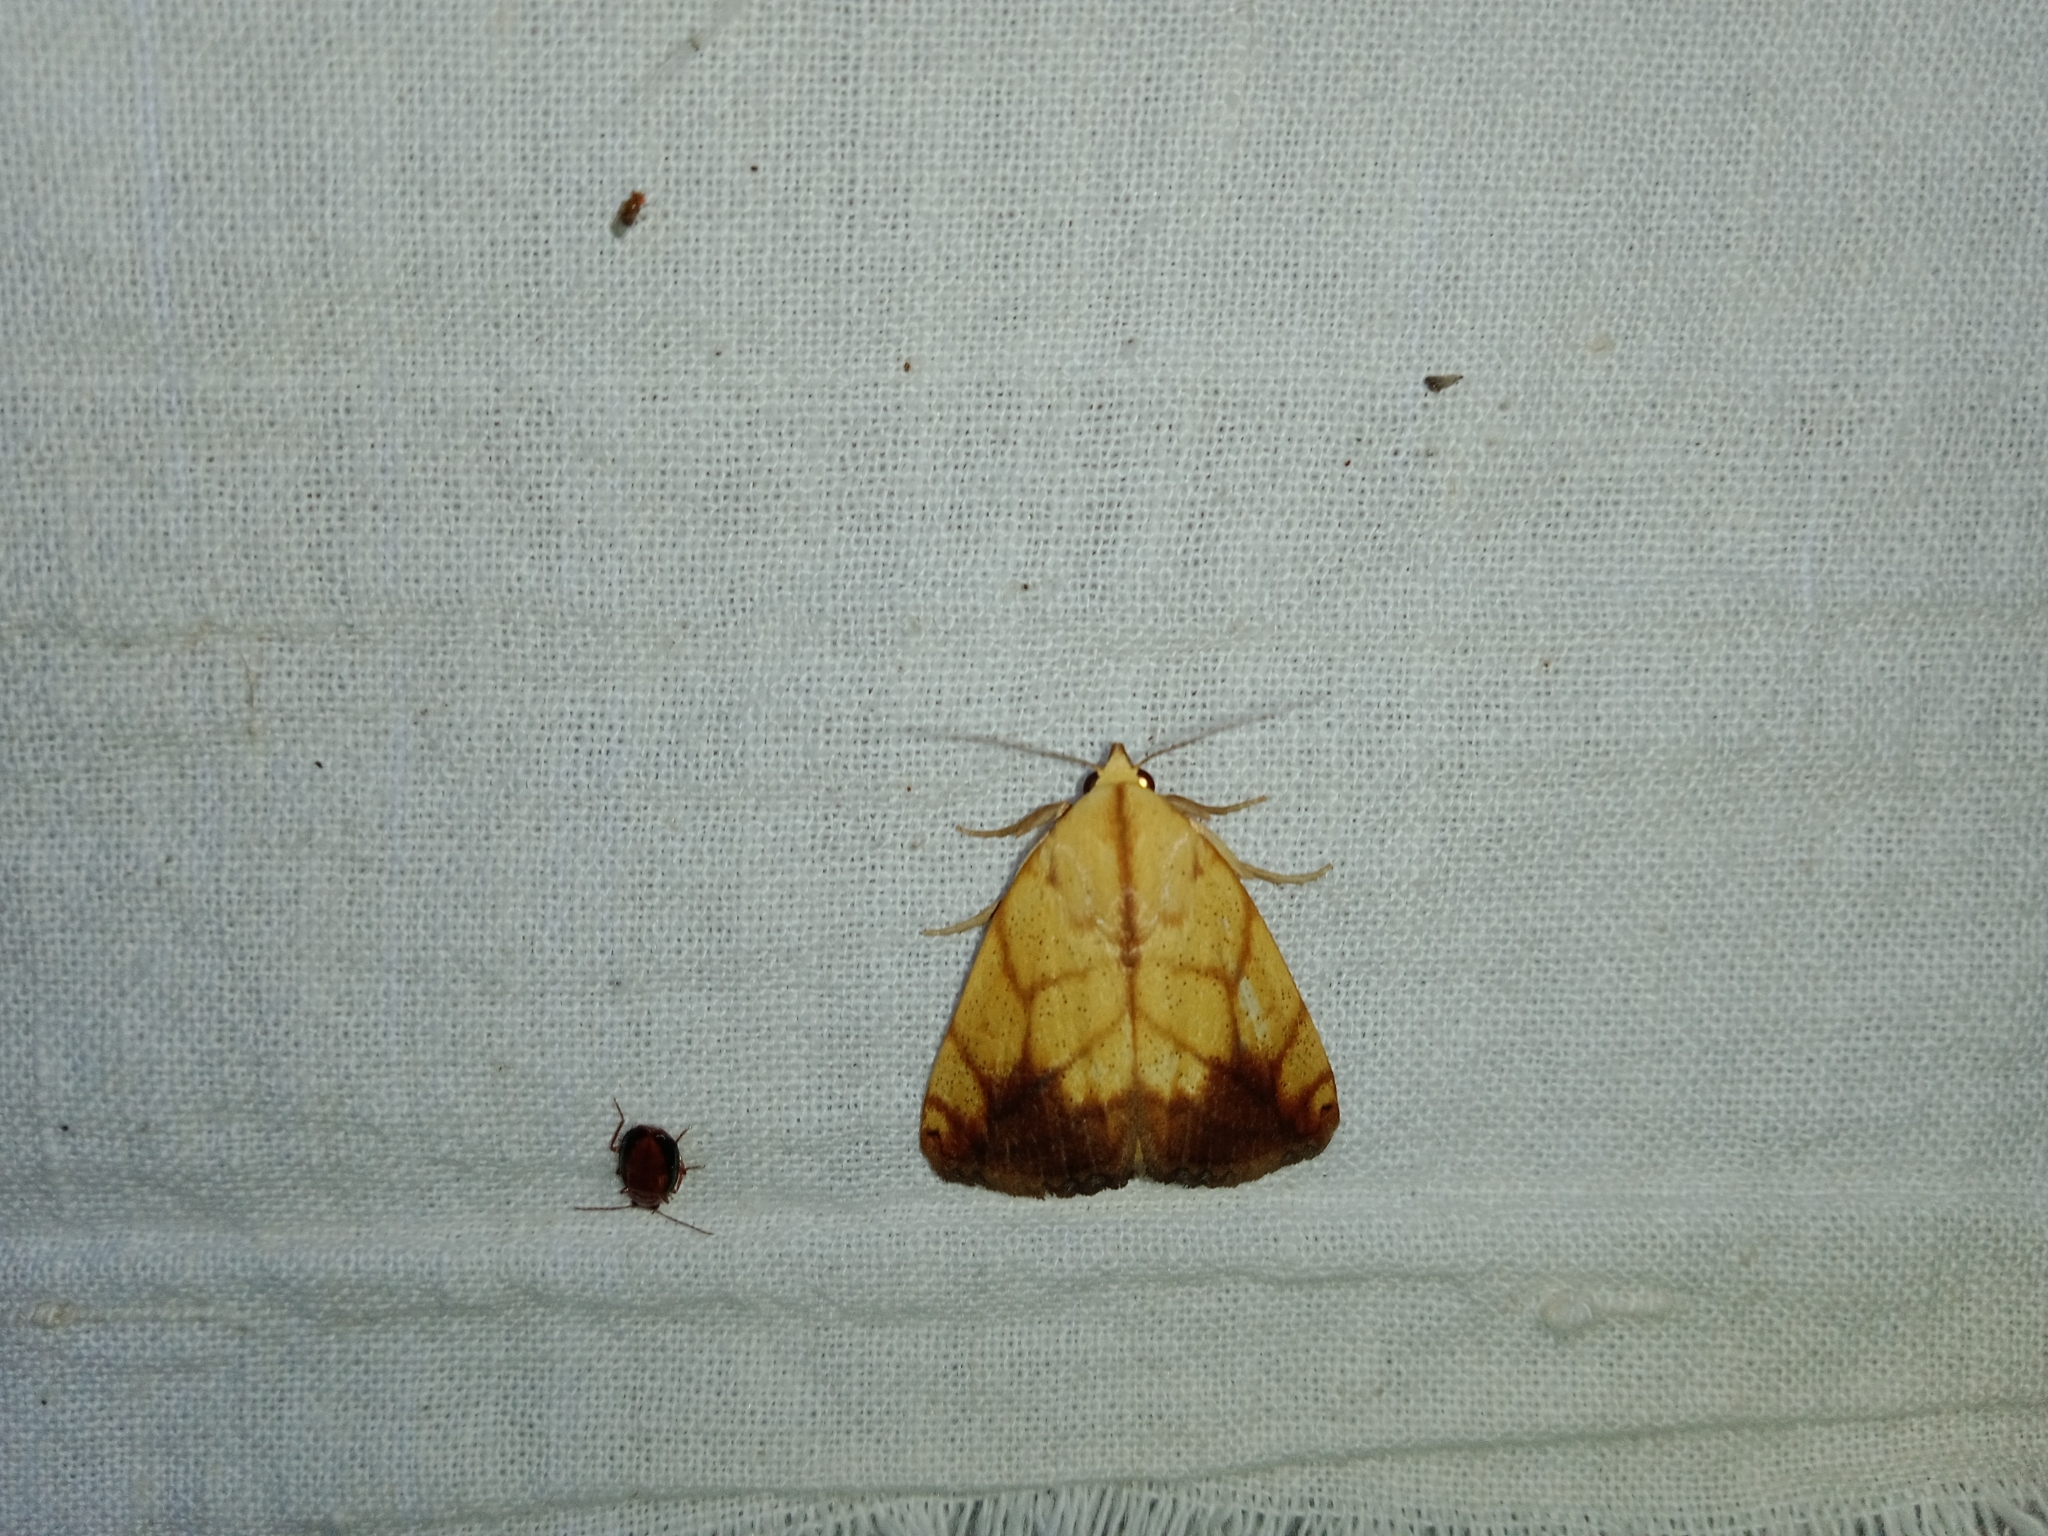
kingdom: Animalia
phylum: Arthropoda
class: Insecta
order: Lepidoptera
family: Nolidae
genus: Xanthodes
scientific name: Xanthodes transversa
